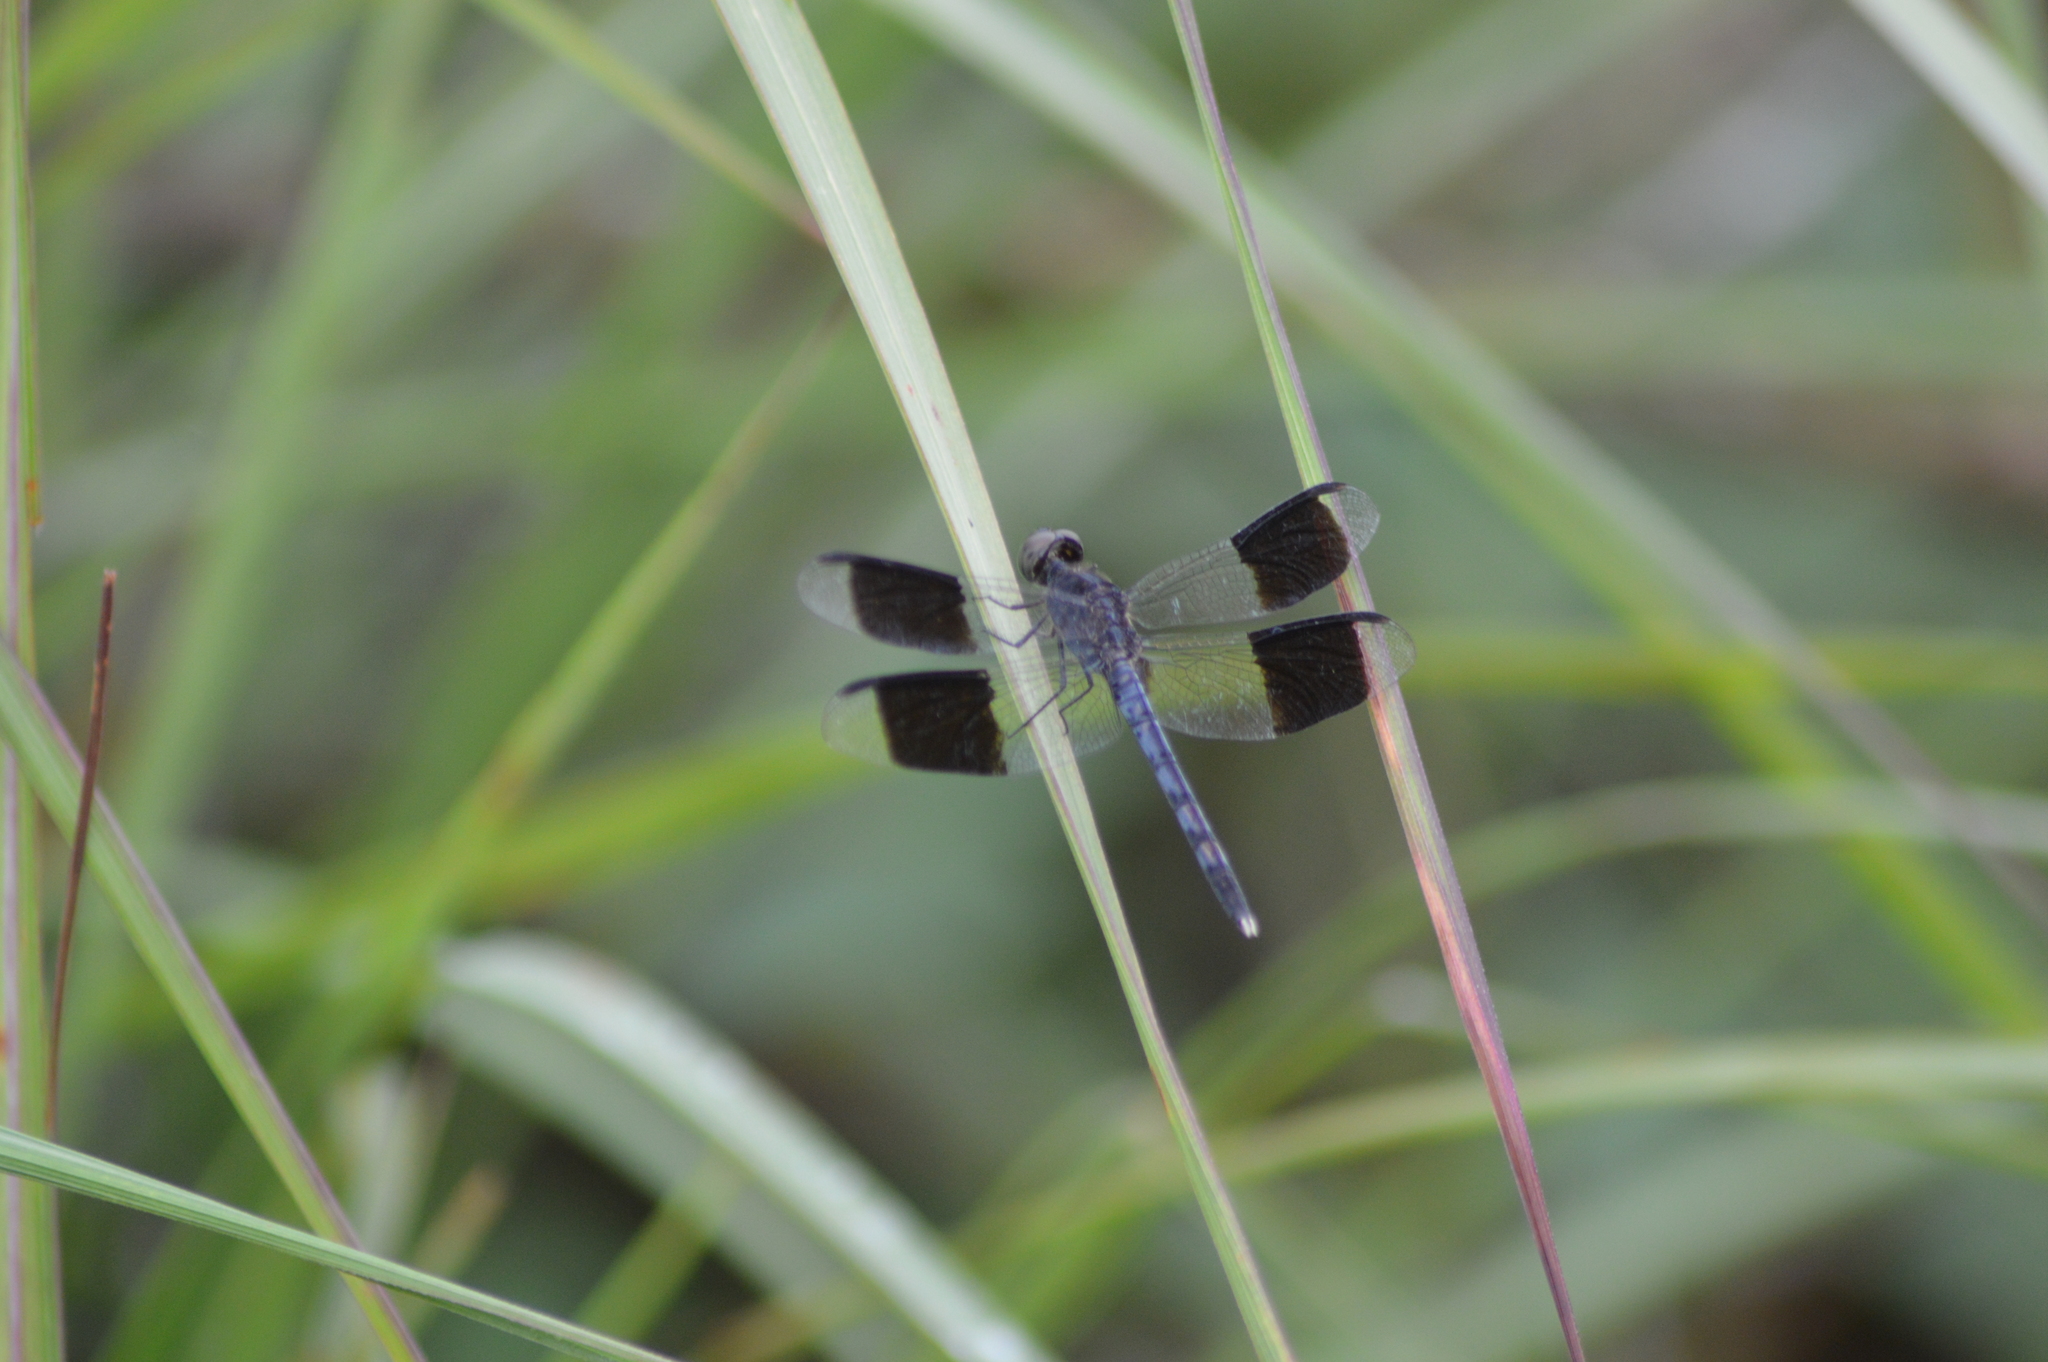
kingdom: Animalia
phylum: Arthropoda
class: Insecta
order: Odonata
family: Libellulidae
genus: Erythrodiplax
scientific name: Erythrodiplax umbrata
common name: Band-winged dragonlet
